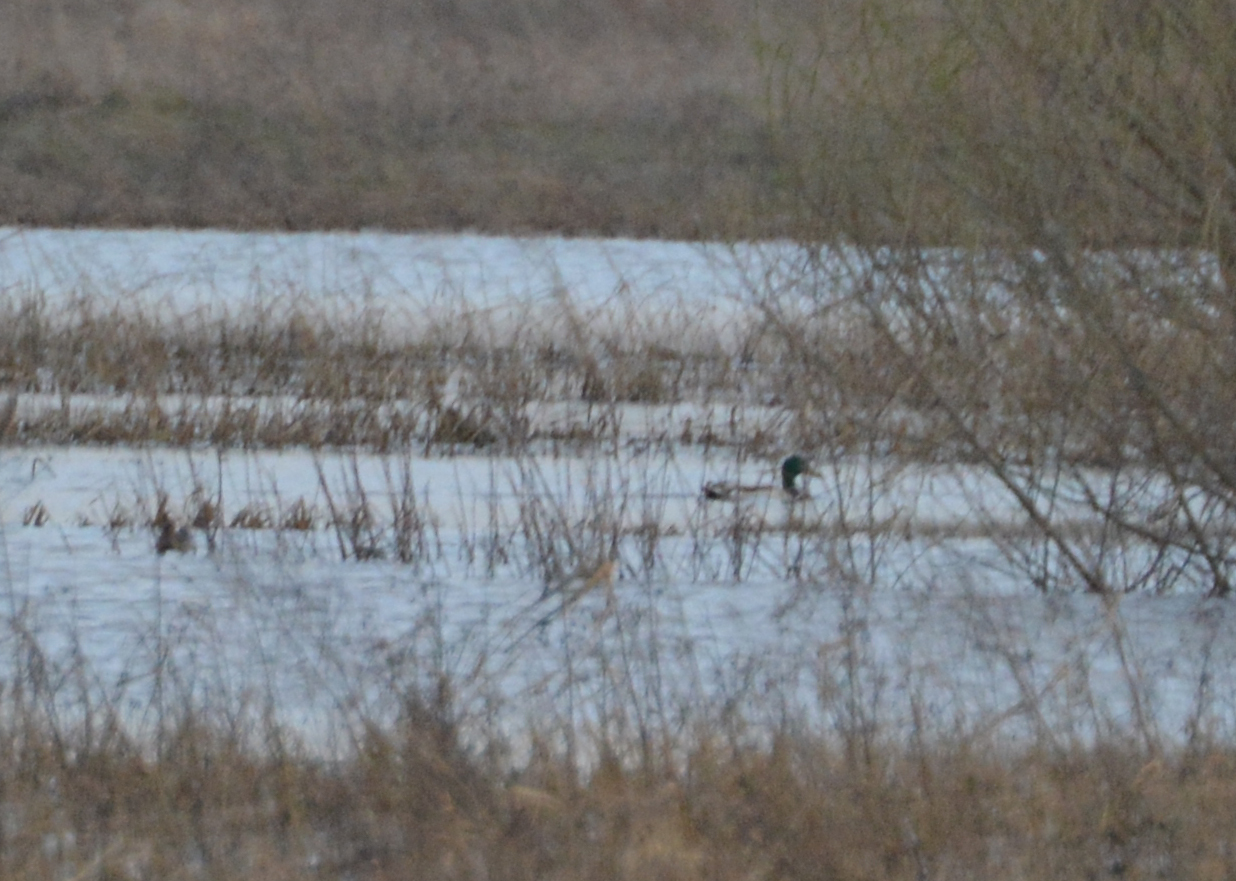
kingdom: Animalia
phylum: Chordata
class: Aves
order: Anseriformes
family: Anatidae
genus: Anas
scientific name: Anas platyrhynchos
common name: Mallard
